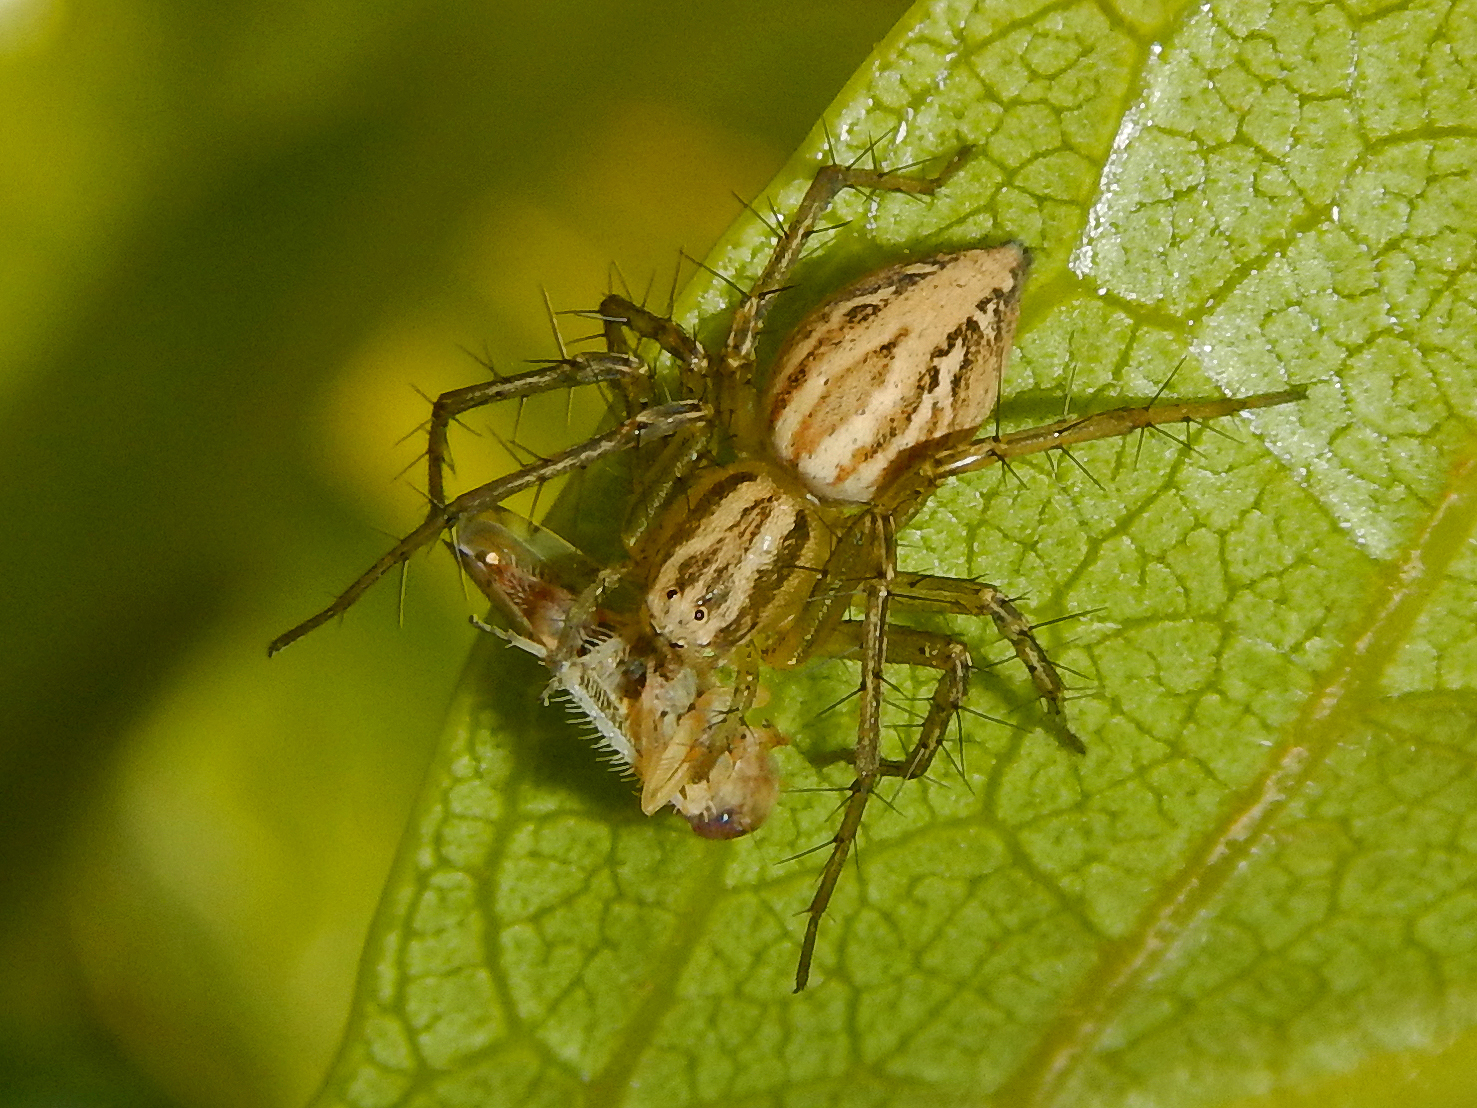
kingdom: Animalia
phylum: Arthropoda
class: Arachnida
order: Araneae
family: Oxyopidae
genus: Oxyopes
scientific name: Oxyopes lineatus
